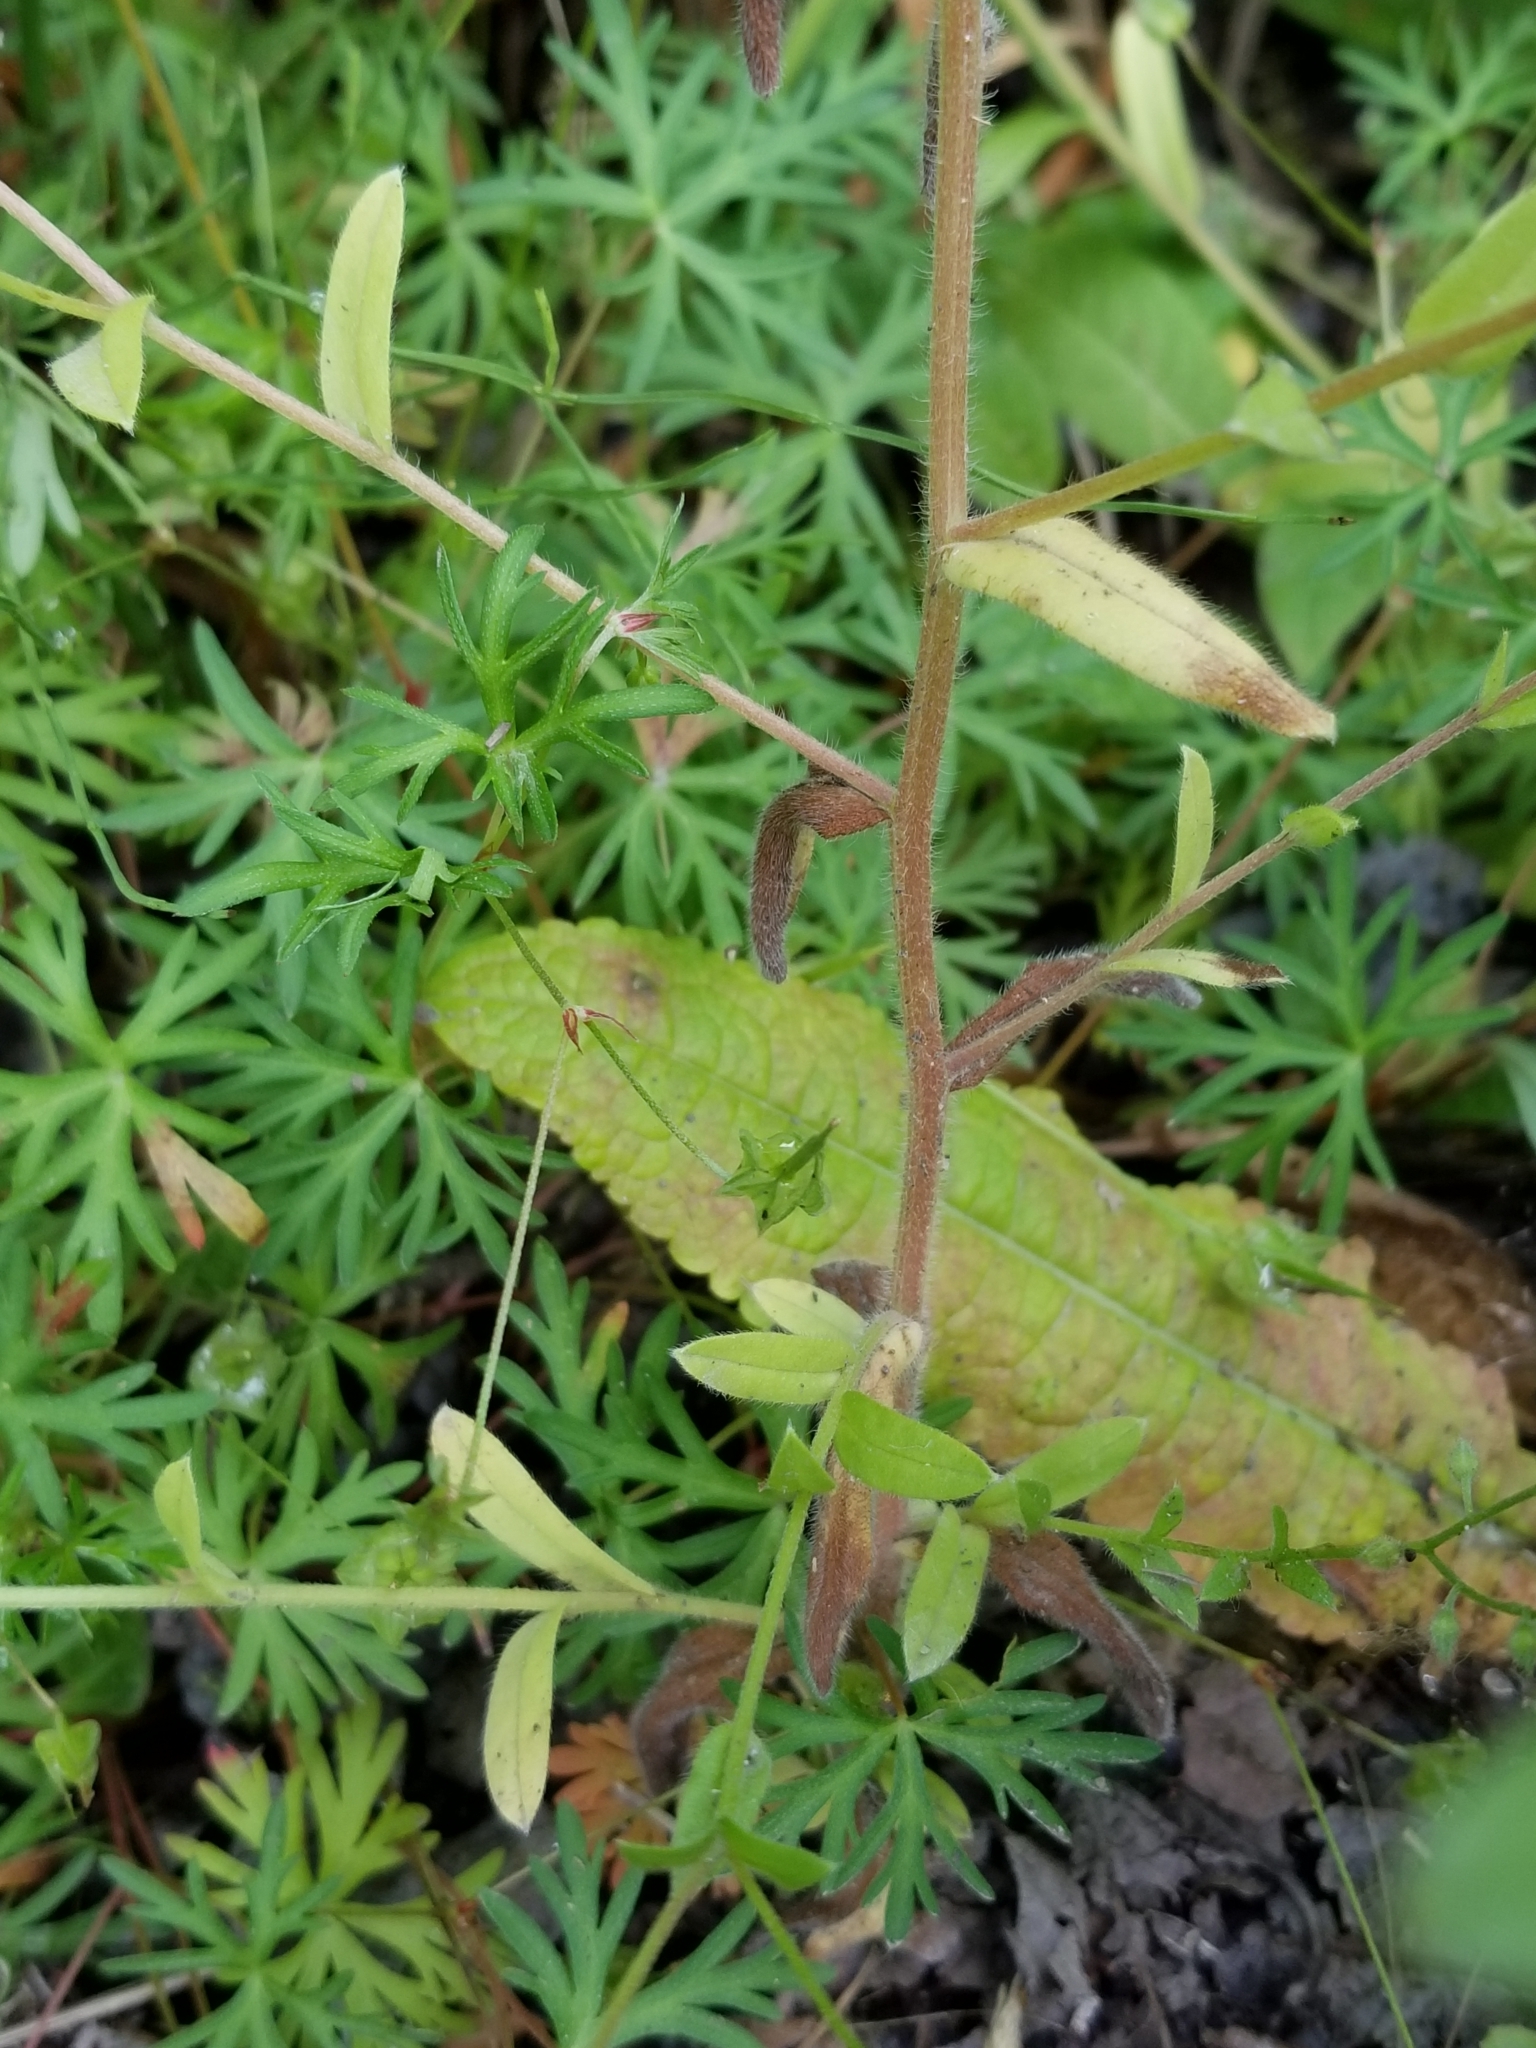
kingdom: Plantae
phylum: Tracheophyta
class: Magnoliopsida
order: Boraginales
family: Boraginaceae
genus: Myosotis
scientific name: Myosotis arvensis
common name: Field forget-me-not
